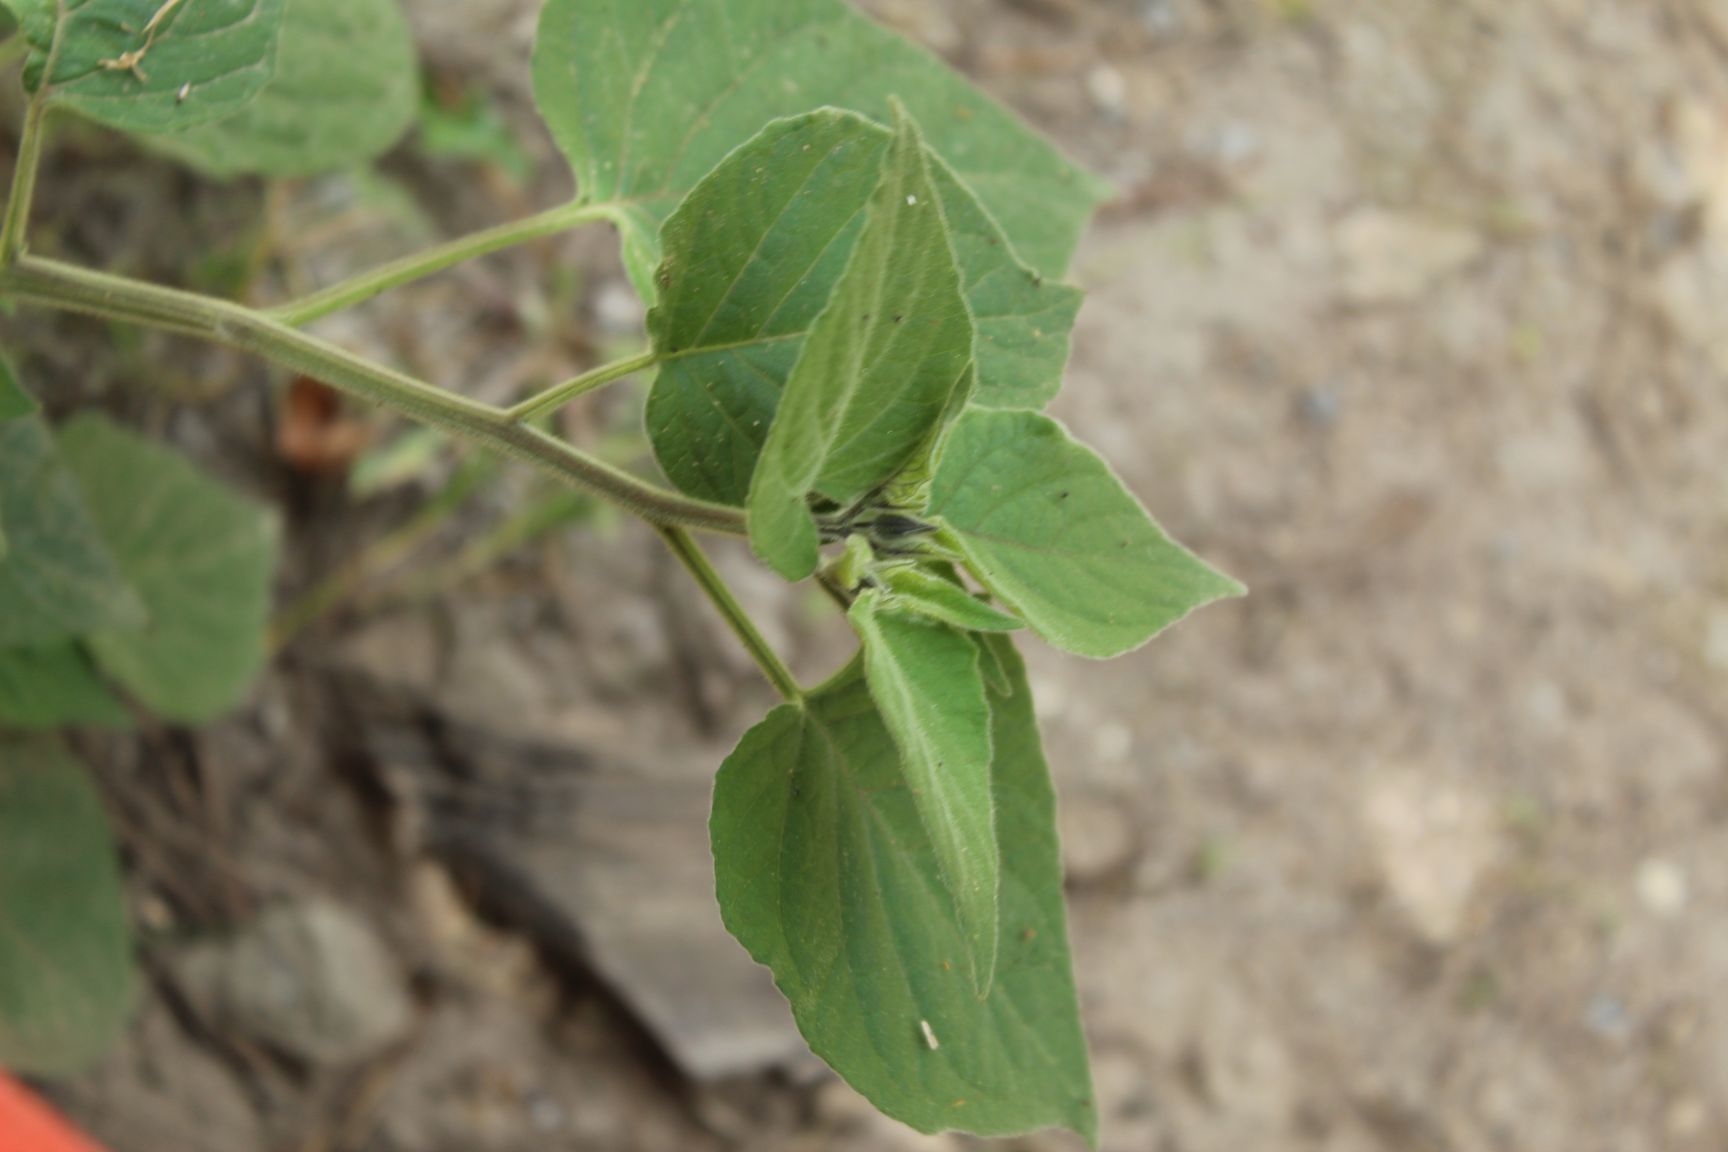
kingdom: Plantae
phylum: Tracheophyta
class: Magnoliopsida
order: Solanales
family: Solanaceae
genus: Physalis
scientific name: Physalis peruviana
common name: Cape-gooseberry
